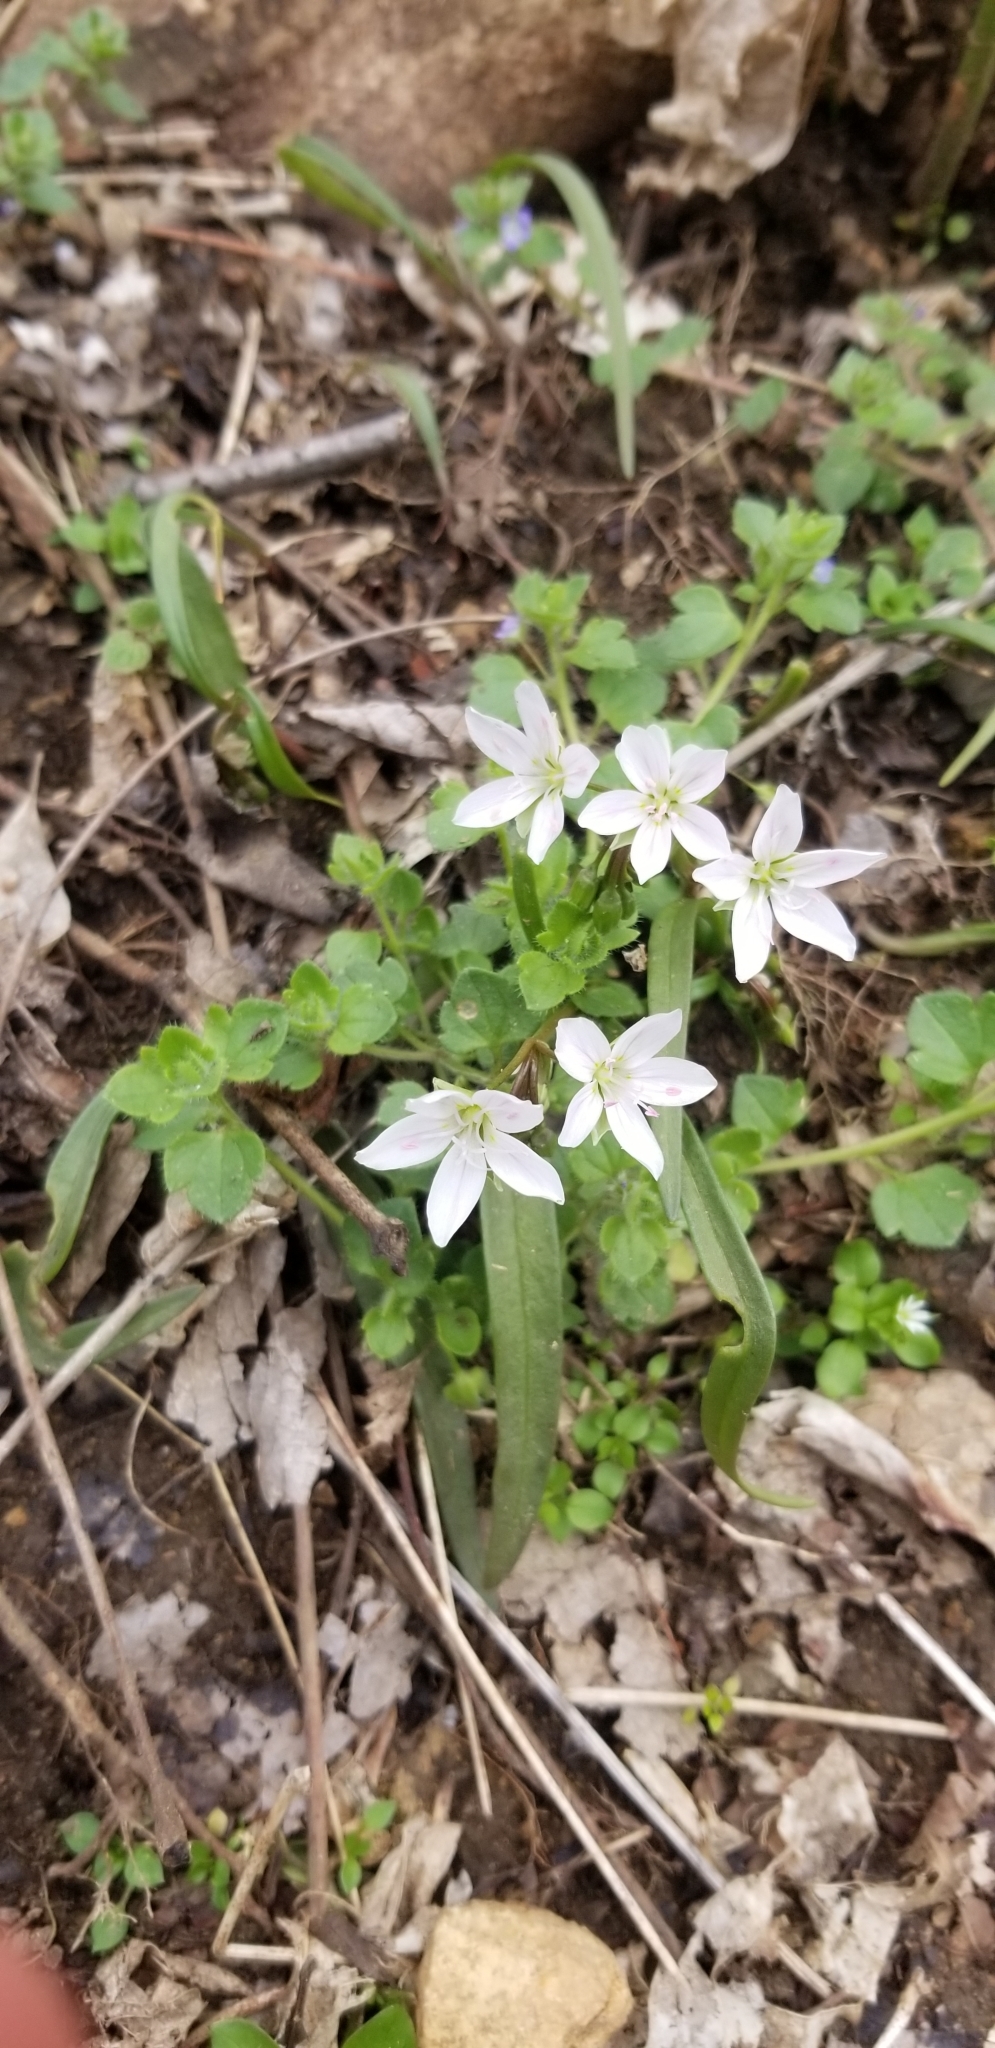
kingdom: Plantae
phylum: Tracheophyta
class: Magnoliopsida
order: Caryophyllales
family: Montiaceae
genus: Claytonia
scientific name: Claytonia virginica
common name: Virginia springbeauty
